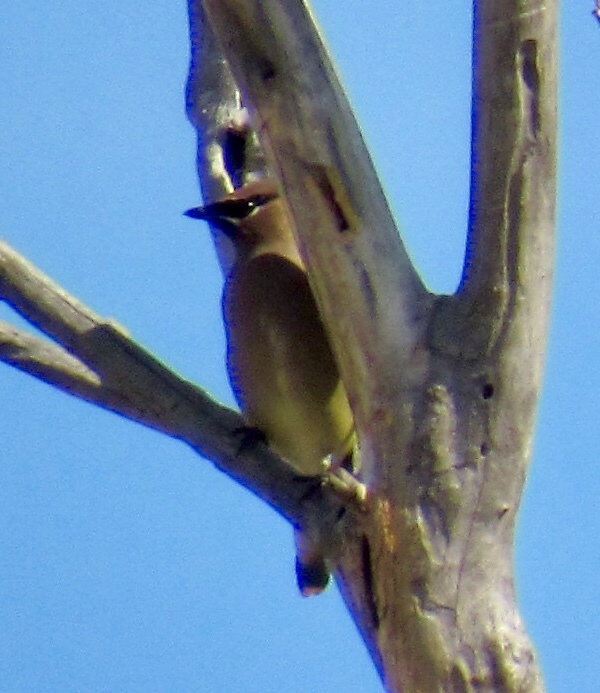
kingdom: Animalia
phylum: Chordata
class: Aves
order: Passeriformes
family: Bombycillidae
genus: Bombycilla
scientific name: Bombycilla cedrorum
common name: Cedar waxwing
